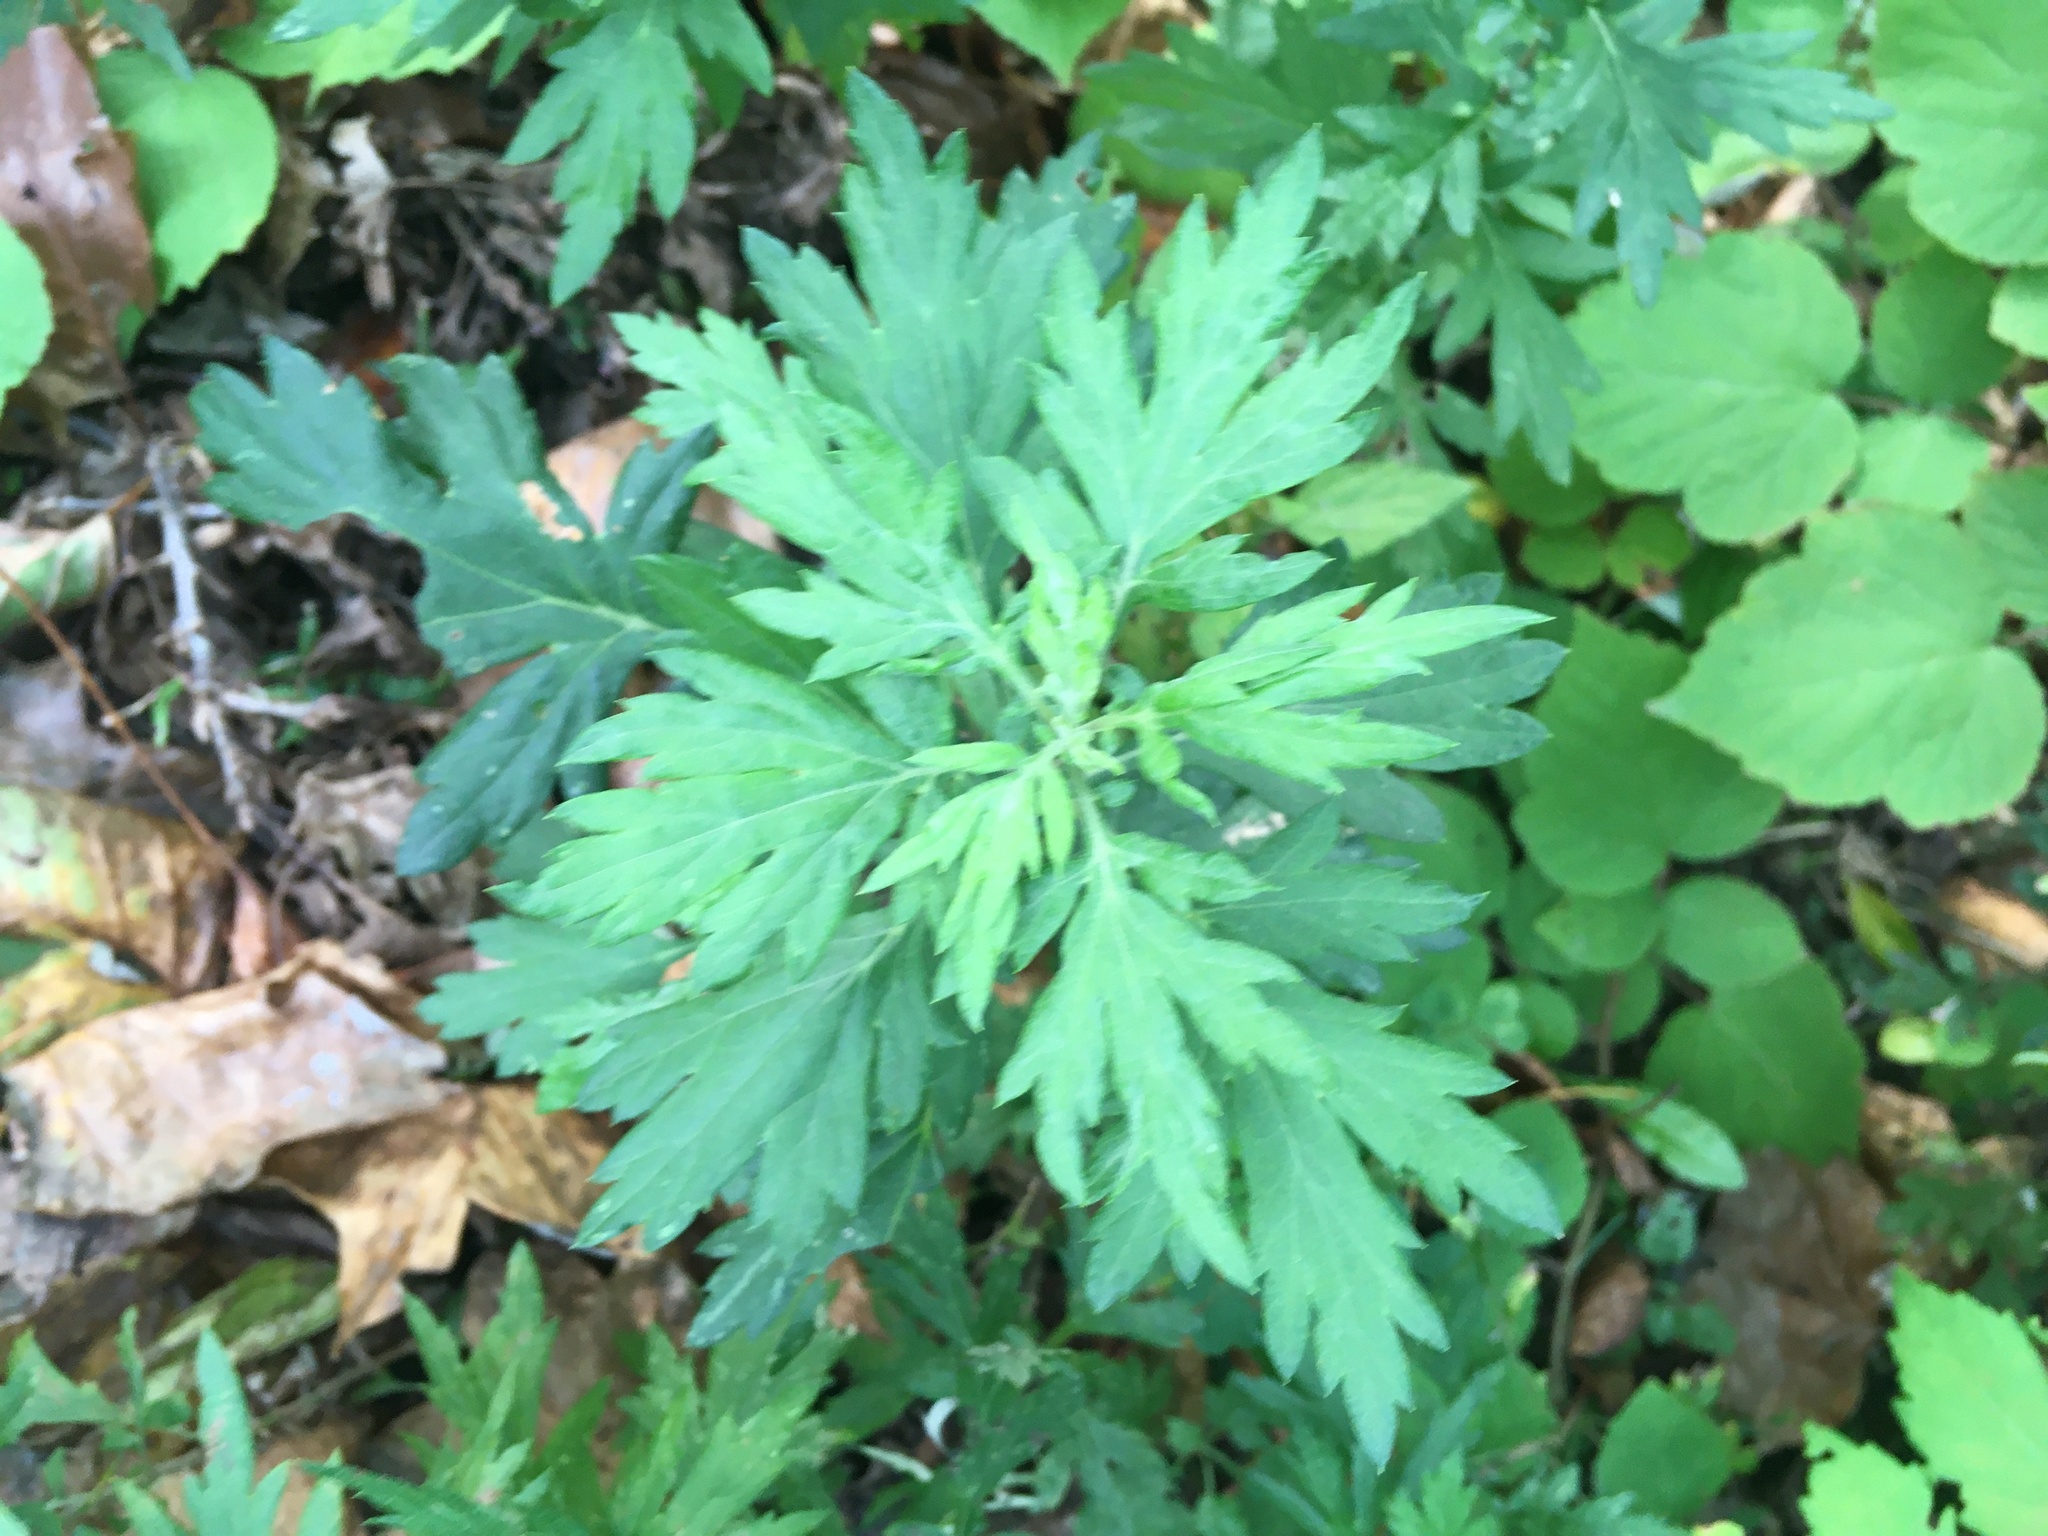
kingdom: Plantae
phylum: Tracheophyta
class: Magnoliopsida
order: Asterales
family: Asteraceae
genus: Artemisia
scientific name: Artemisia vulgaris
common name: Mugwort
